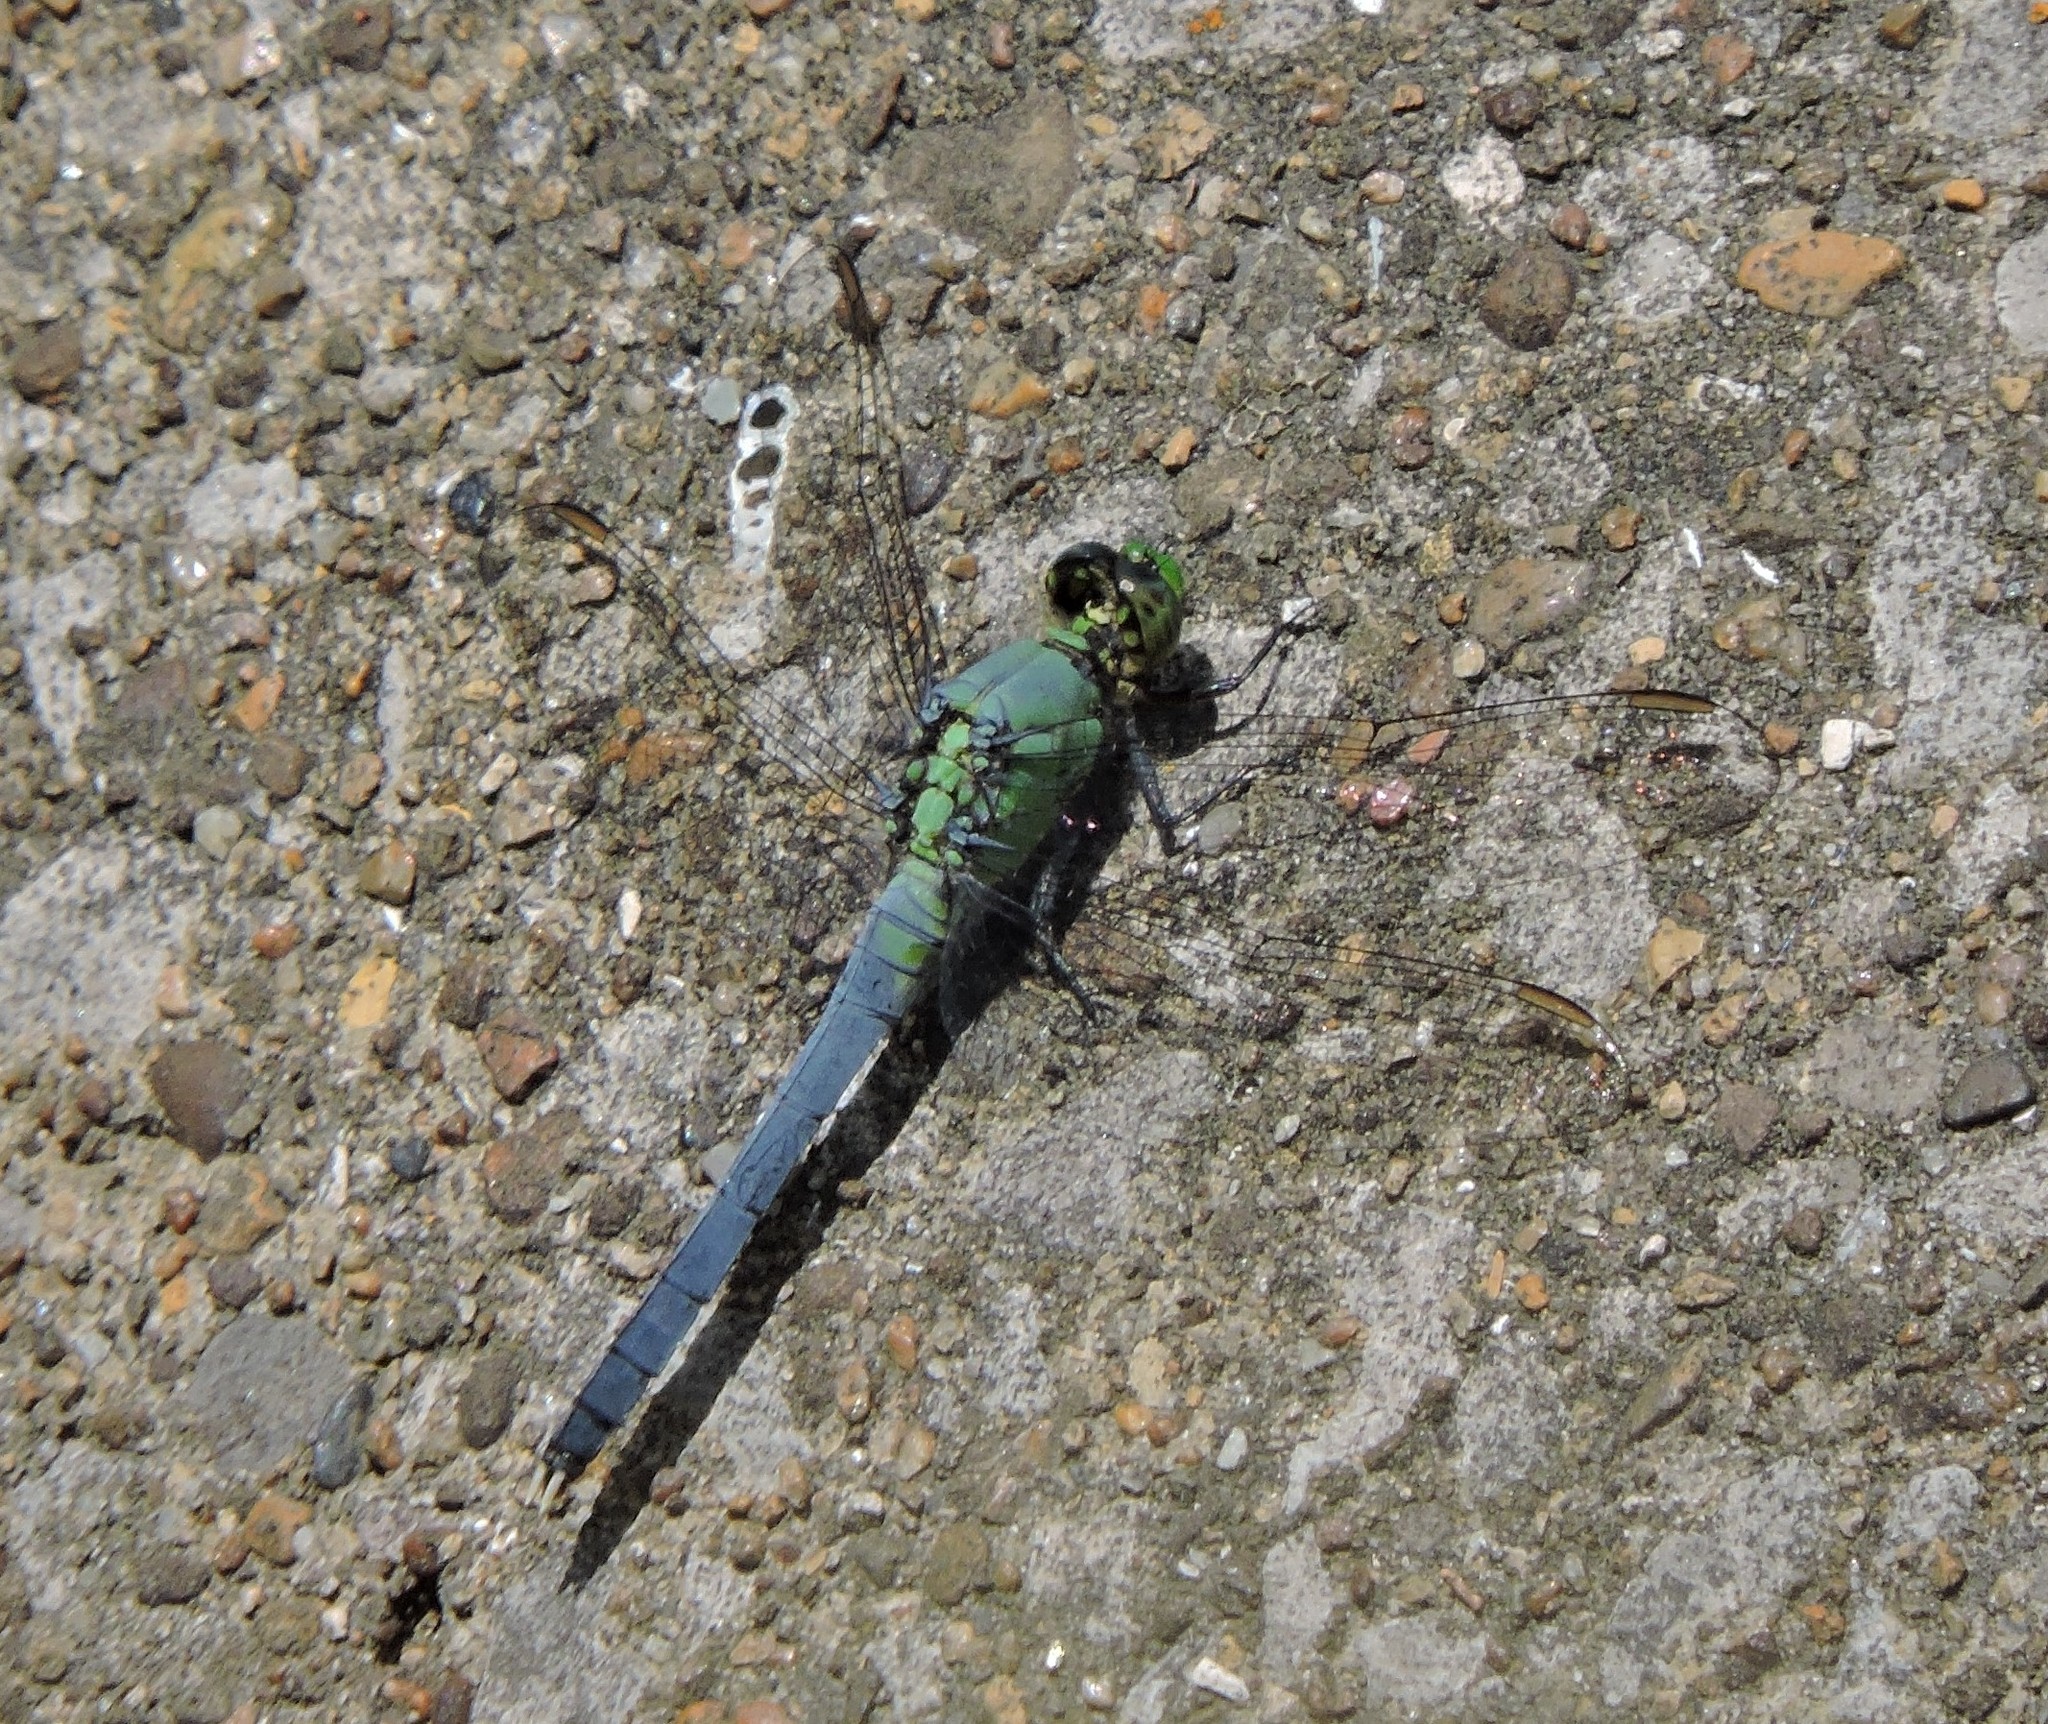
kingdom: Animalia
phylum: Arthropoda
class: Insecta
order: Odonata
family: Libellulidae
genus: Erythemis
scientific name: Erythemis simplicicollis
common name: Eastern pondhawk
